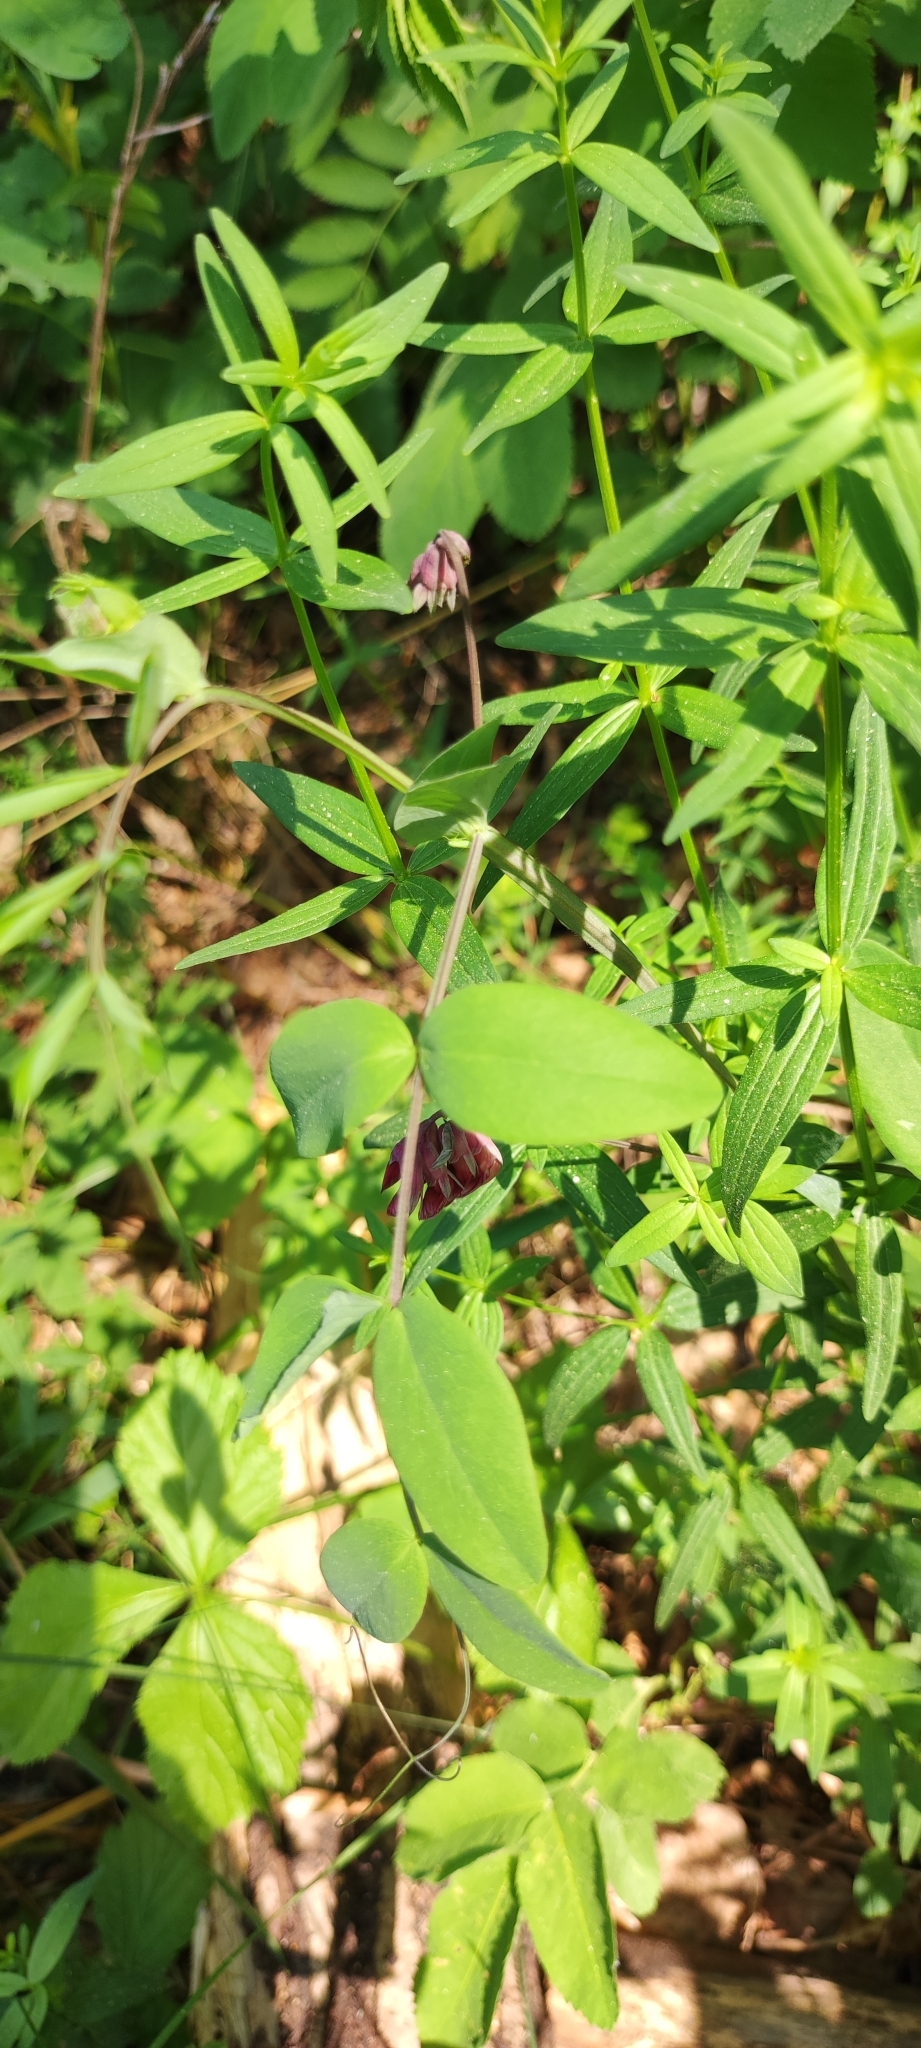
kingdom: Plantae
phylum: Tracheophyta
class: Magnoliopsida
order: Fabales
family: Fabaceae
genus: Lathyrus
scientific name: Lathyrus pisiformis
